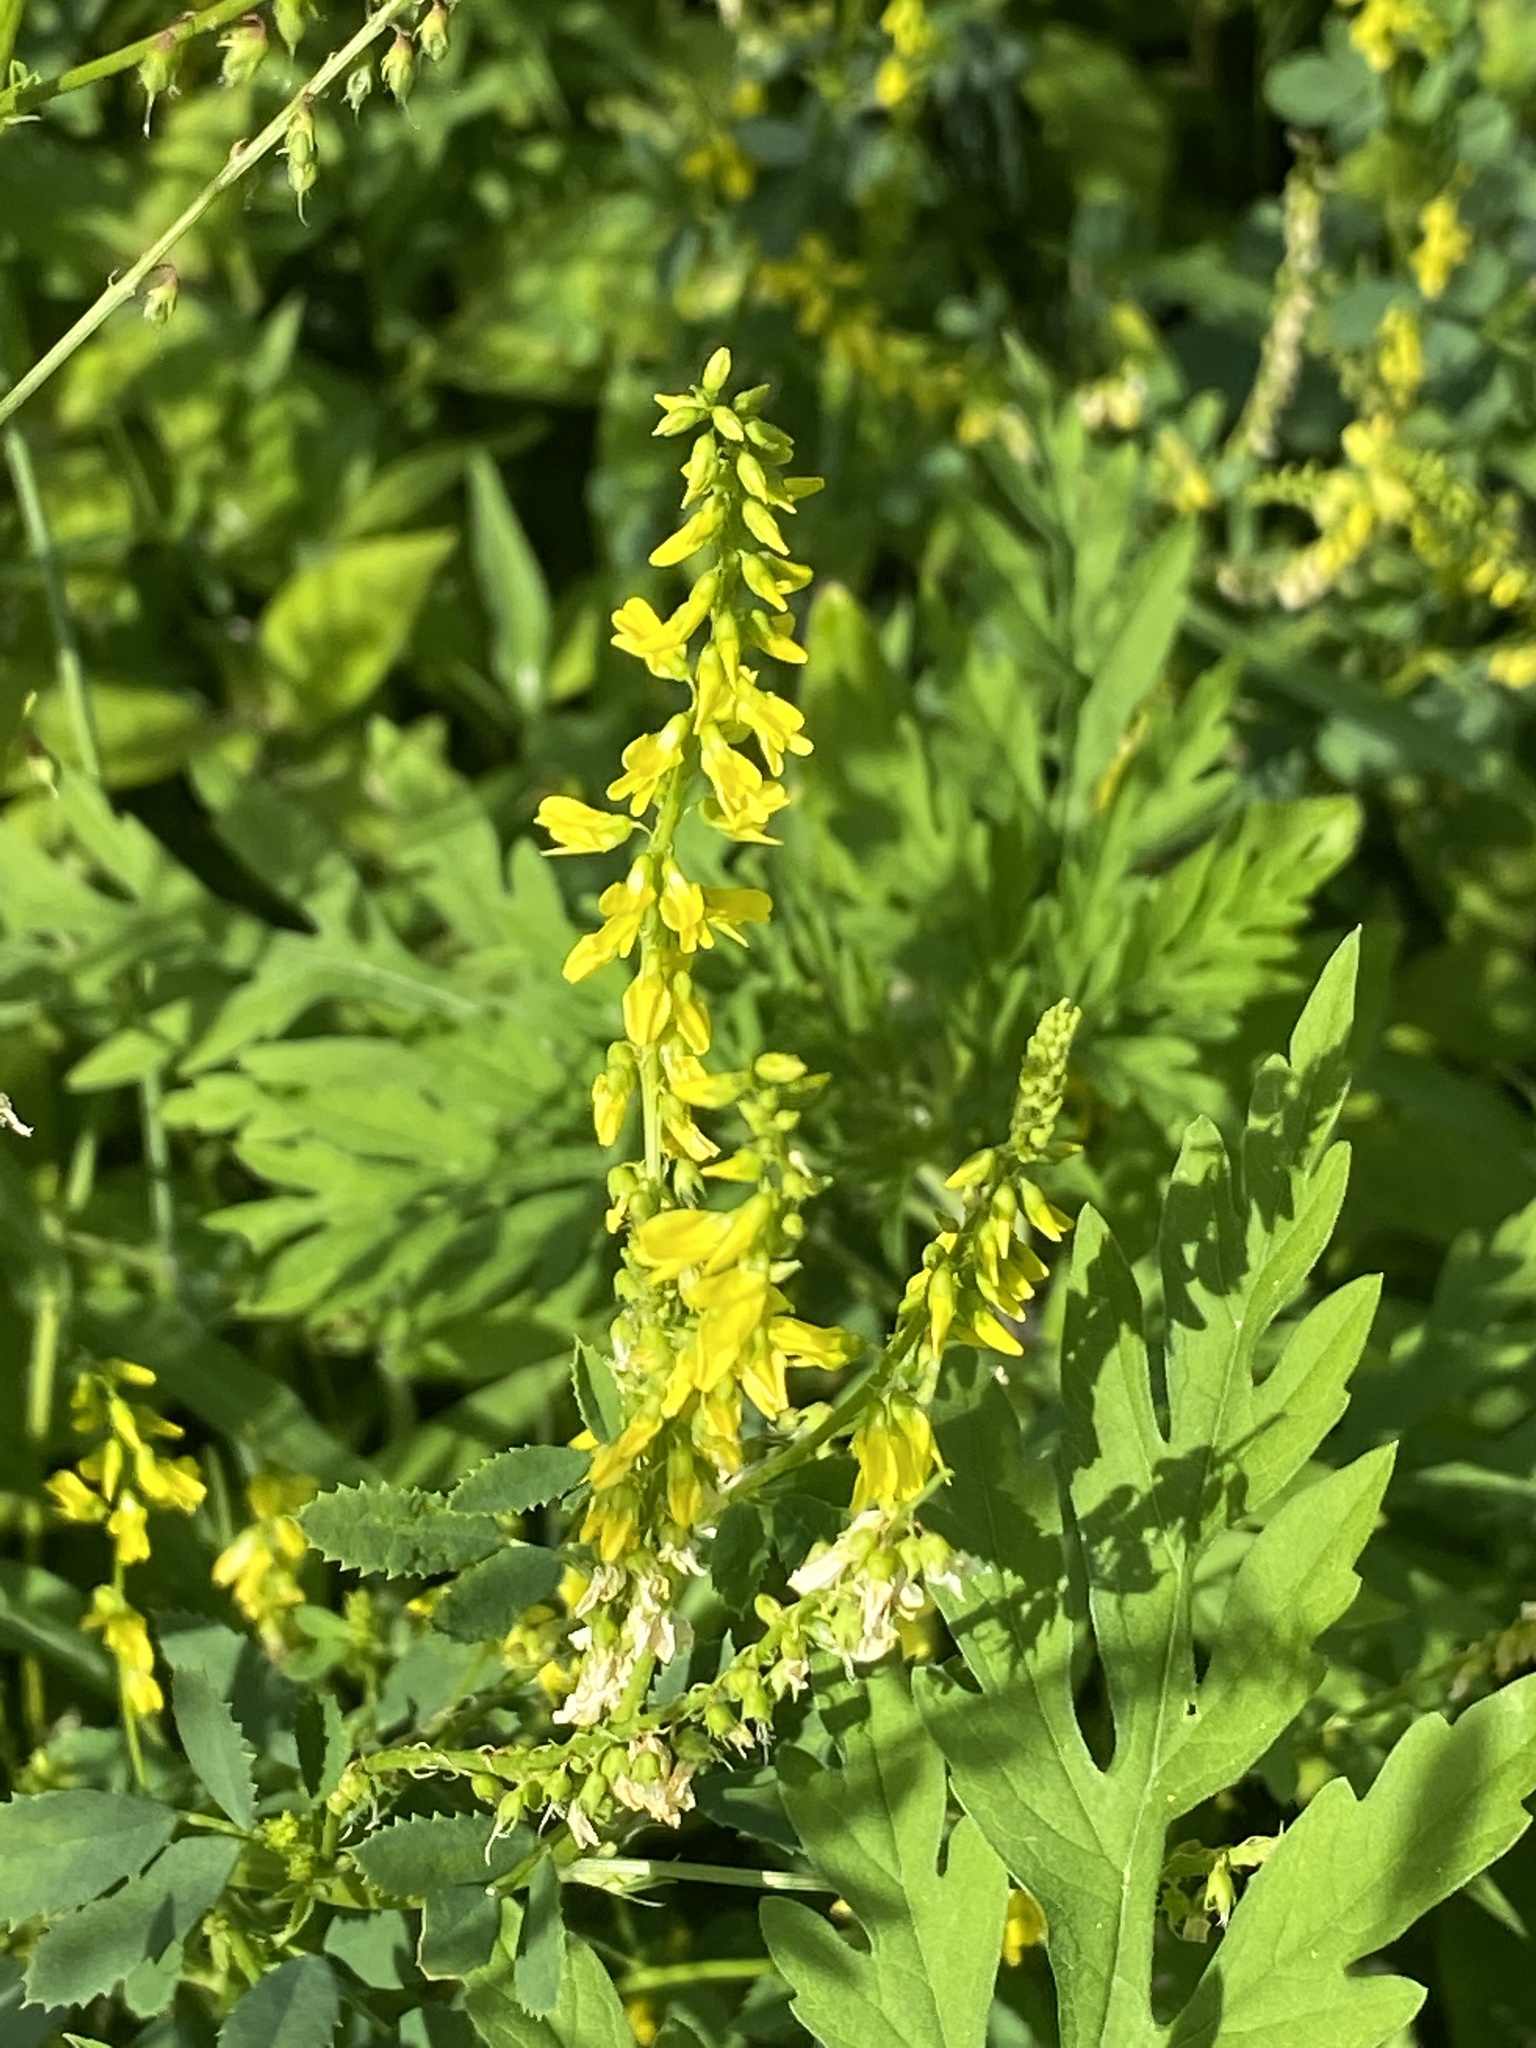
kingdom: Plantae
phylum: Tracheophyta
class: Magnoliopsida
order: Fabales
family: Fabaceae
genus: Melilotus
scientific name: Melilotus officinalis
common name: Sweetclover
